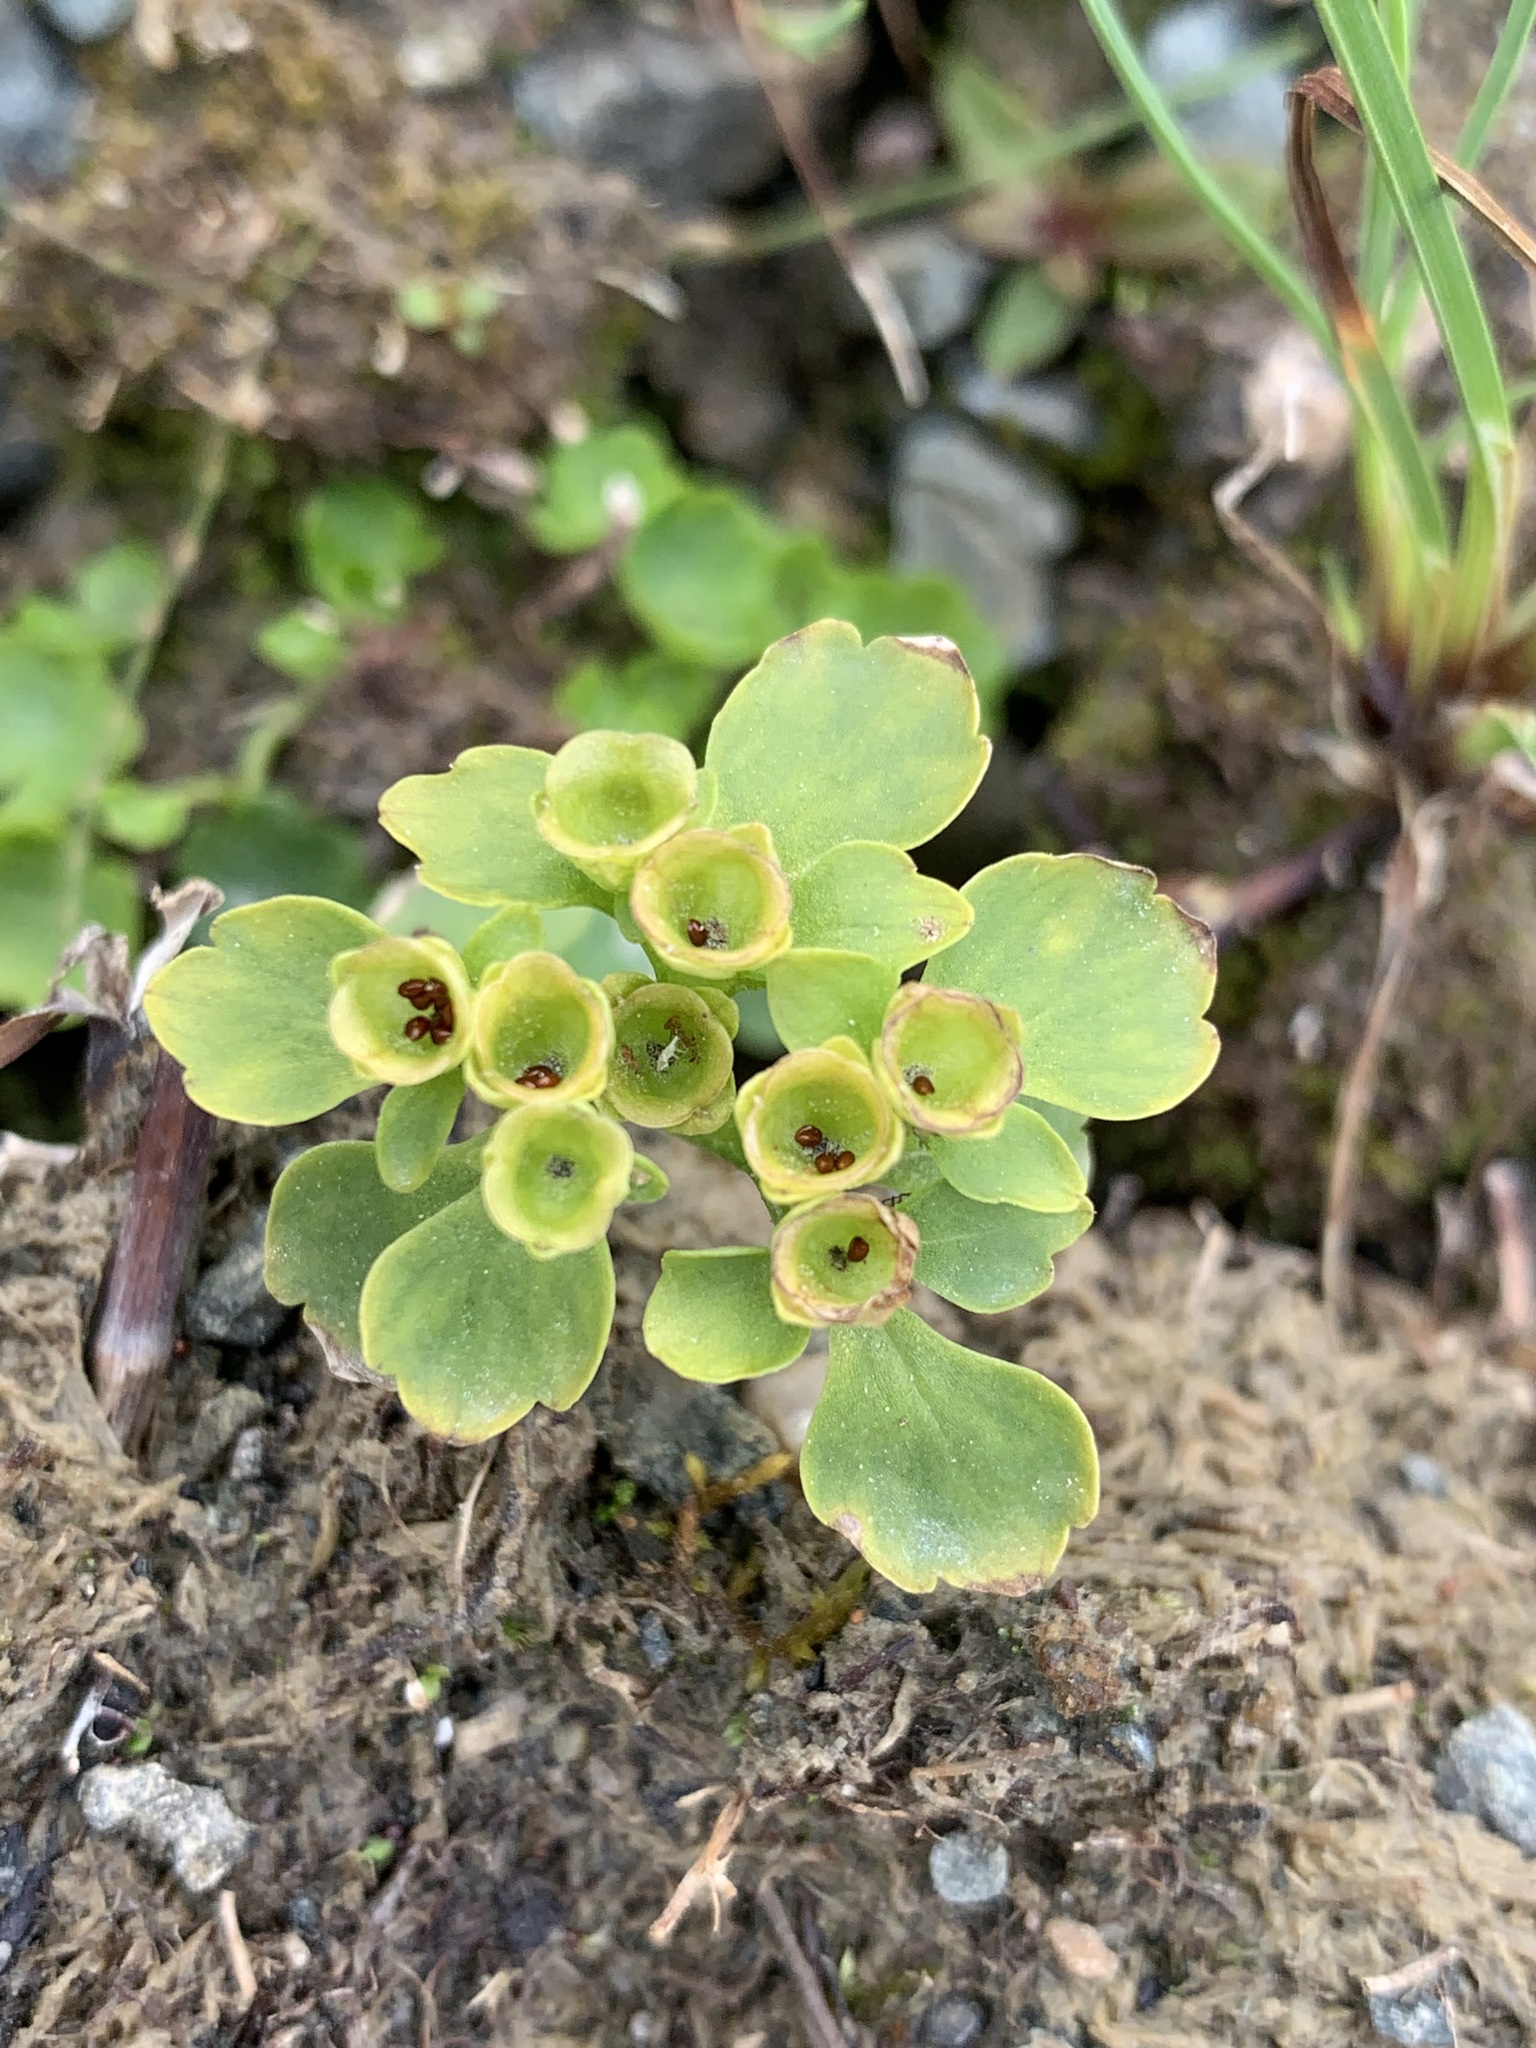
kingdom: Plantae
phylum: Tracheophyta
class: Magnoliopsida
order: Saxifragales
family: Saxifragaceae
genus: Chrysosplenium
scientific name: Chrysosplenium tetrandrum
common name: Green saxifrage
